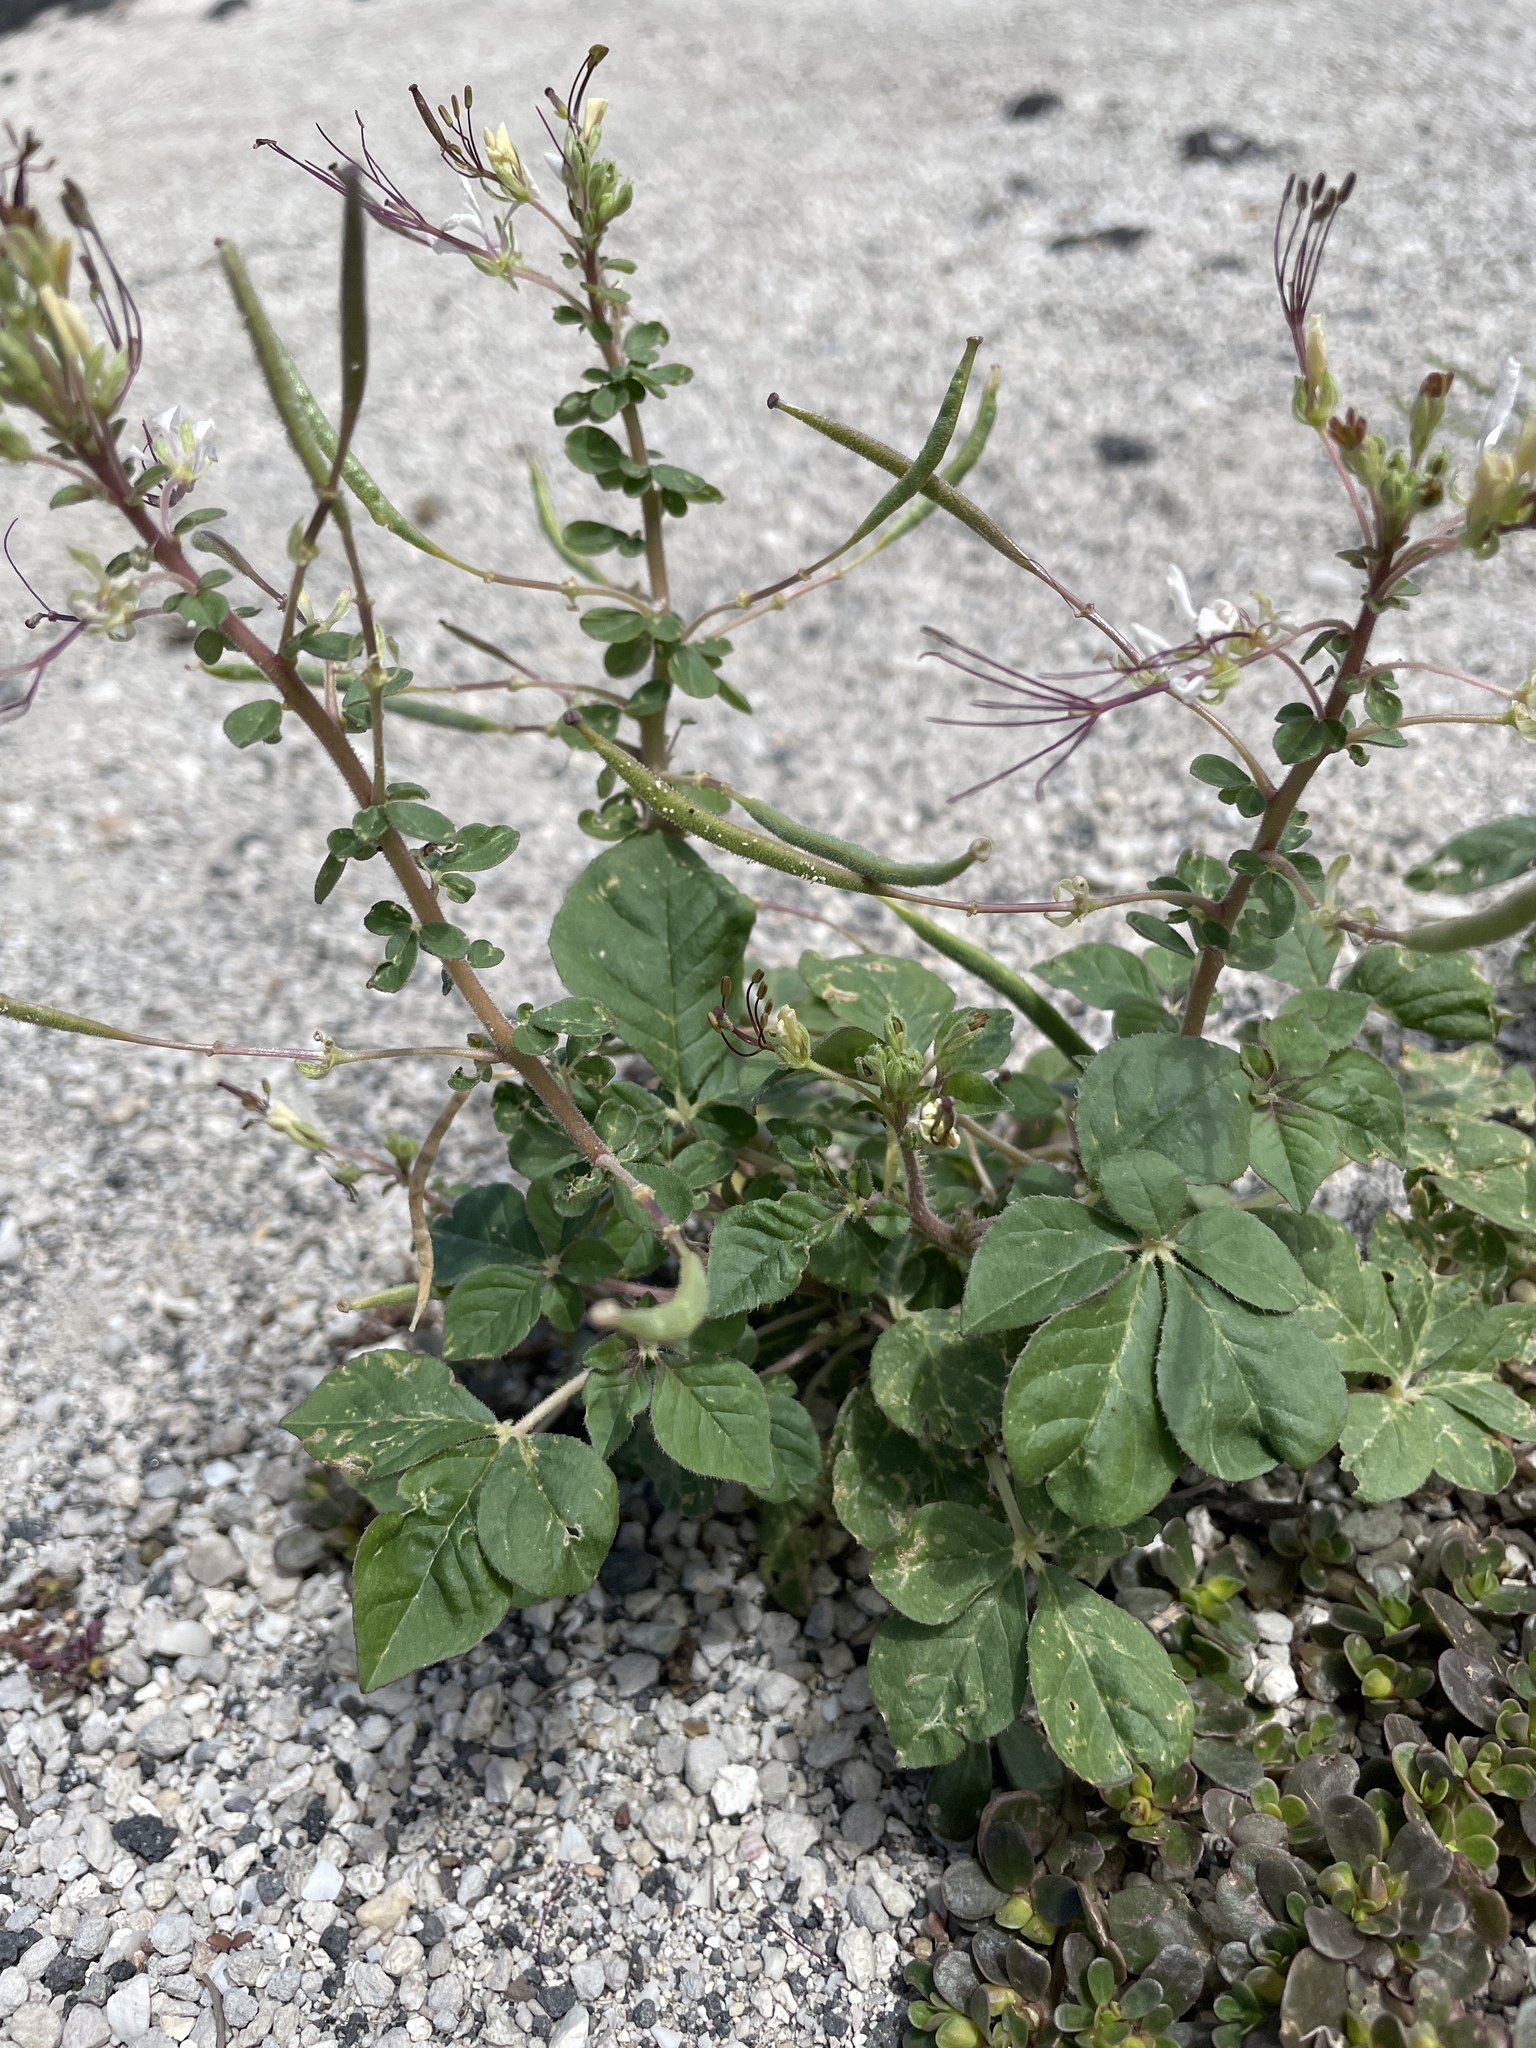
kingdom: Plantae
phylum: Tracheophyta
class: Magnoliopsida
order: Brassicales
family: Cleomaceae
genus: Gynandropsis
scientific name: Gynandropsis gynandra
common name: Spiderwisp
